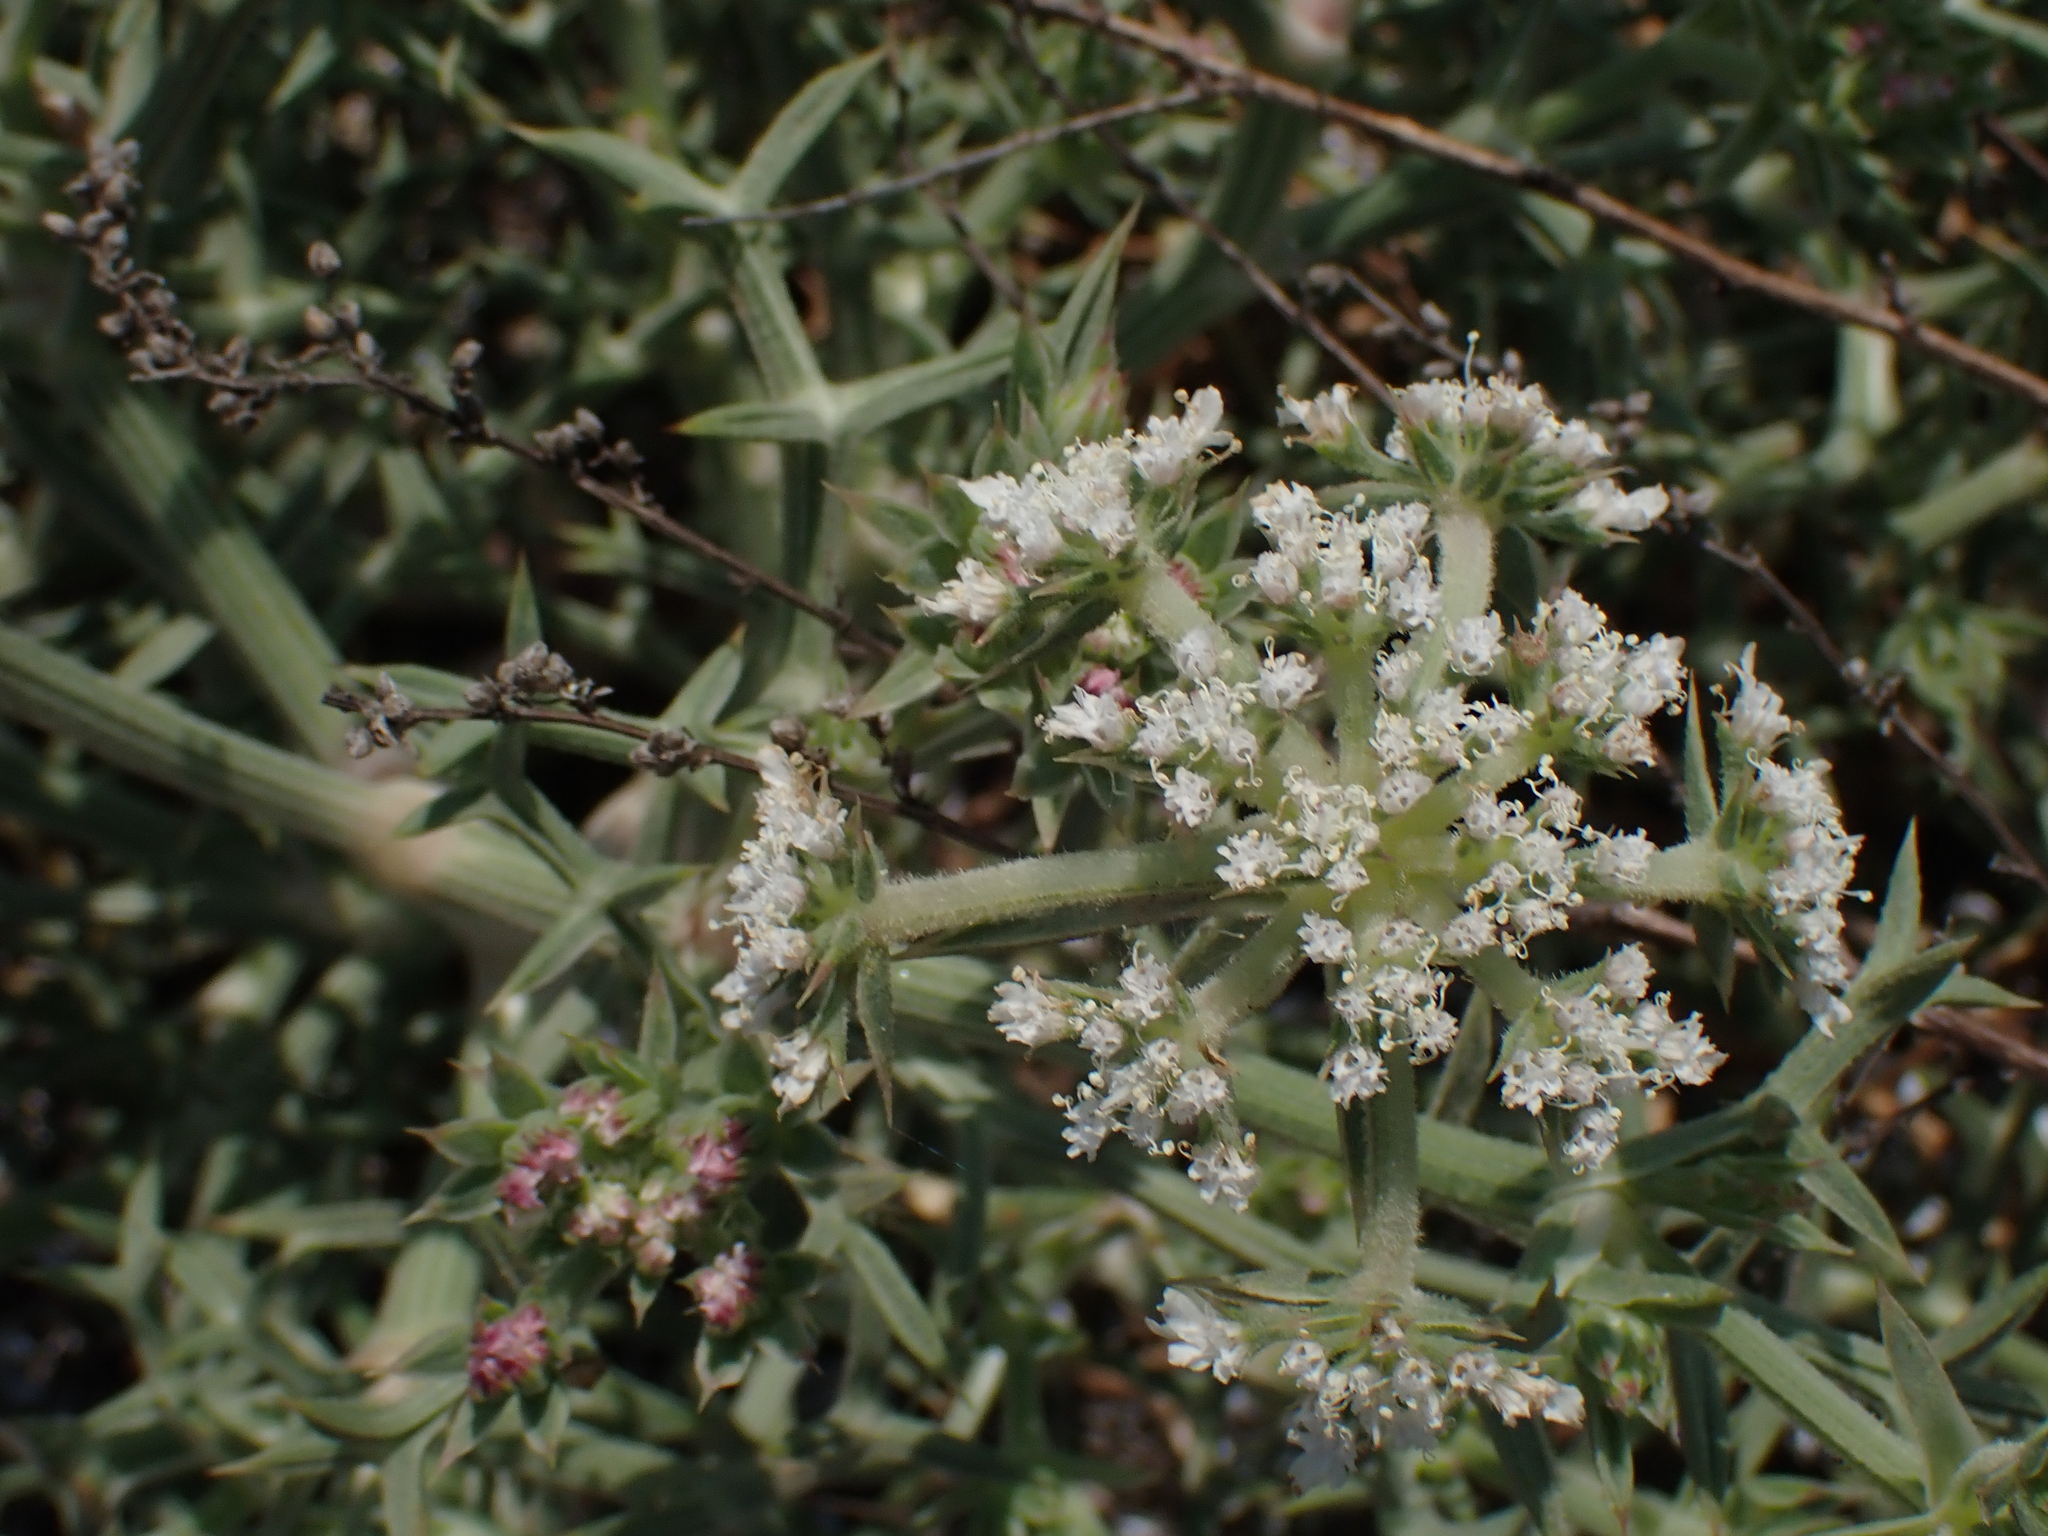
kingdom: Plantae
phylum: Tracheophyta
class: Magnoliopsida
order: Apiales
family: Apiaceae
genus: Echinophora
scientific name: Echinophora spinosa
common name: Prickly samphire
